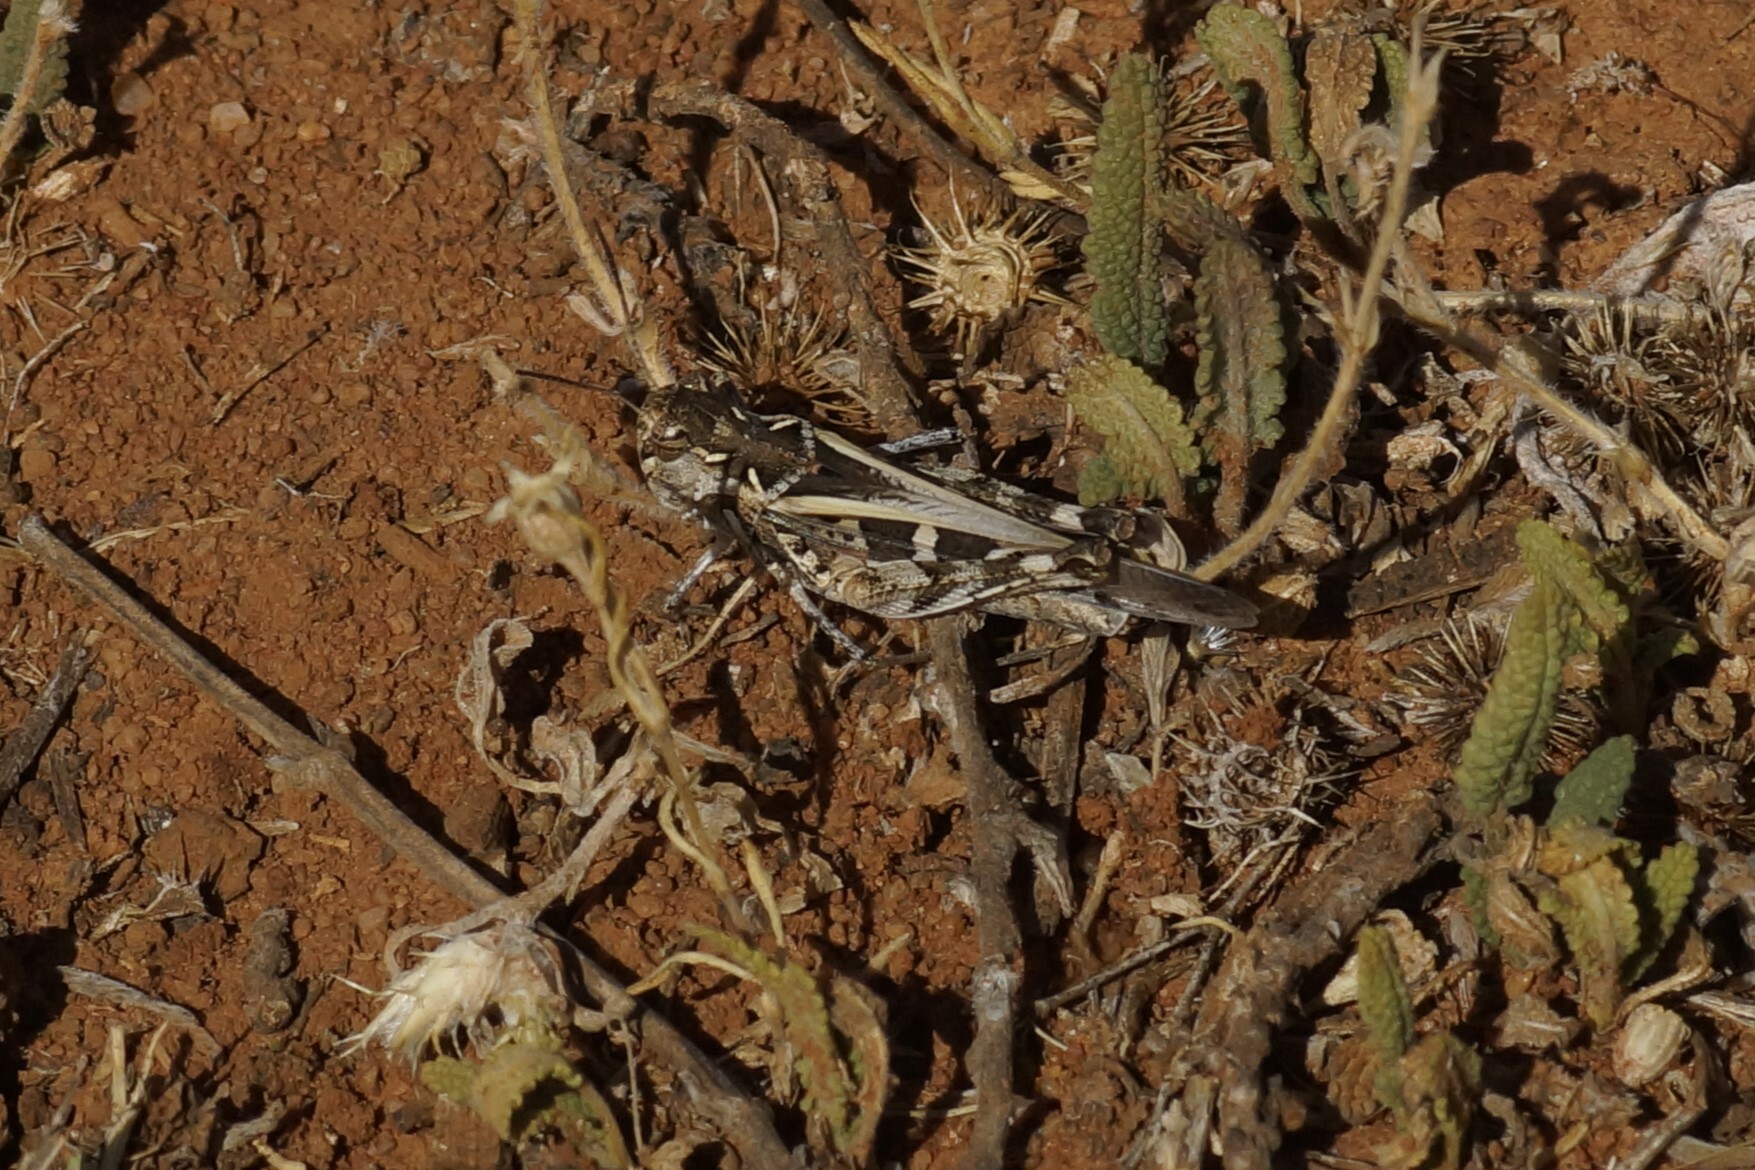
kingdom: Animalia
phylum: Arthropoda
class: Insecta
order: Orthoptera
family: Acrididae
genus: Oedaleus
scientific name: Oedaleus australis
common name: Eastern oedaleus
